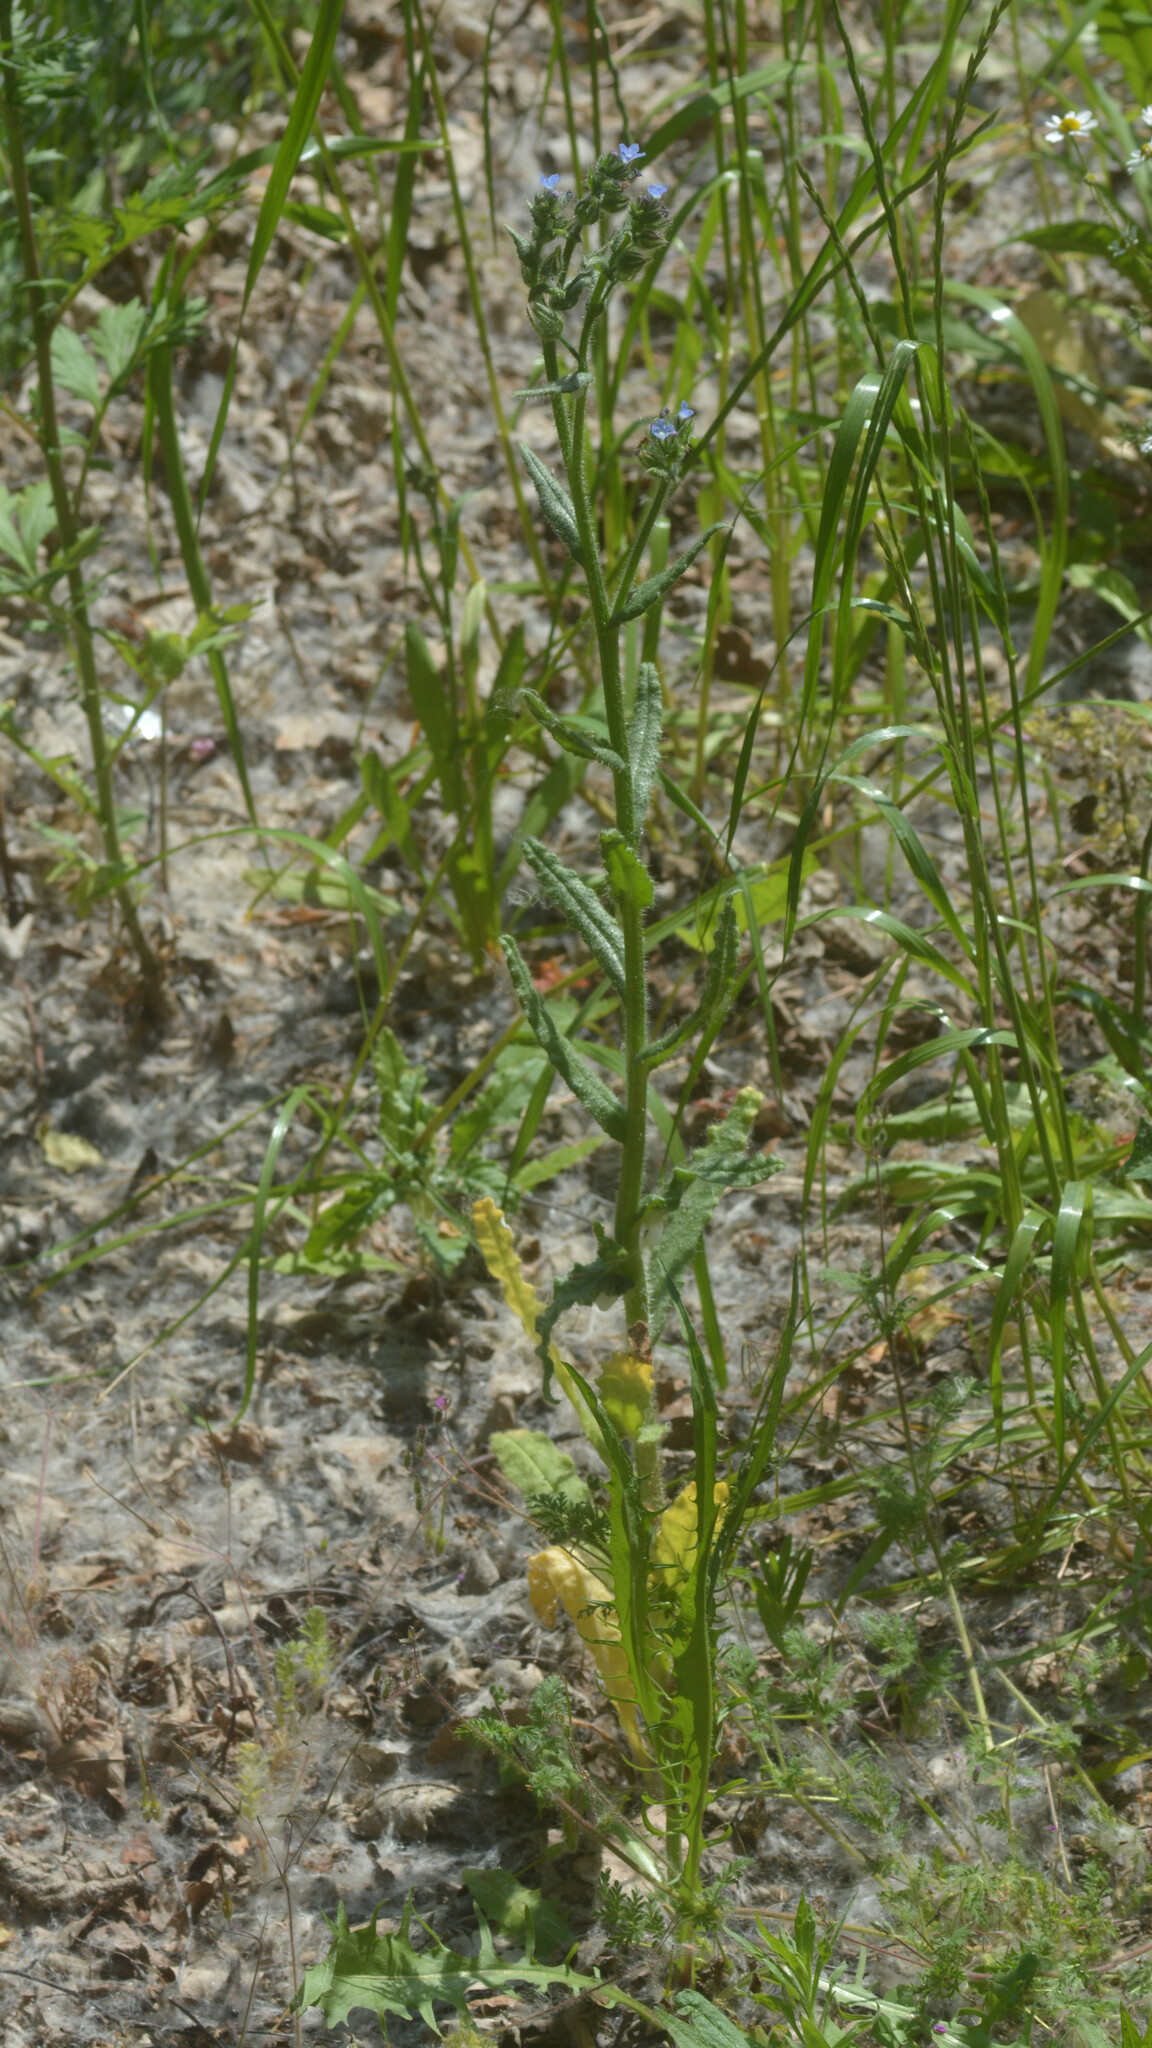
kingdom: Plantae
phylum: Tracheophyta
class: Magnoliopsida
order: Boraginales
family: Boraginaceae
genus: Lycopsis
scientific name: Lycopsis arvensis
